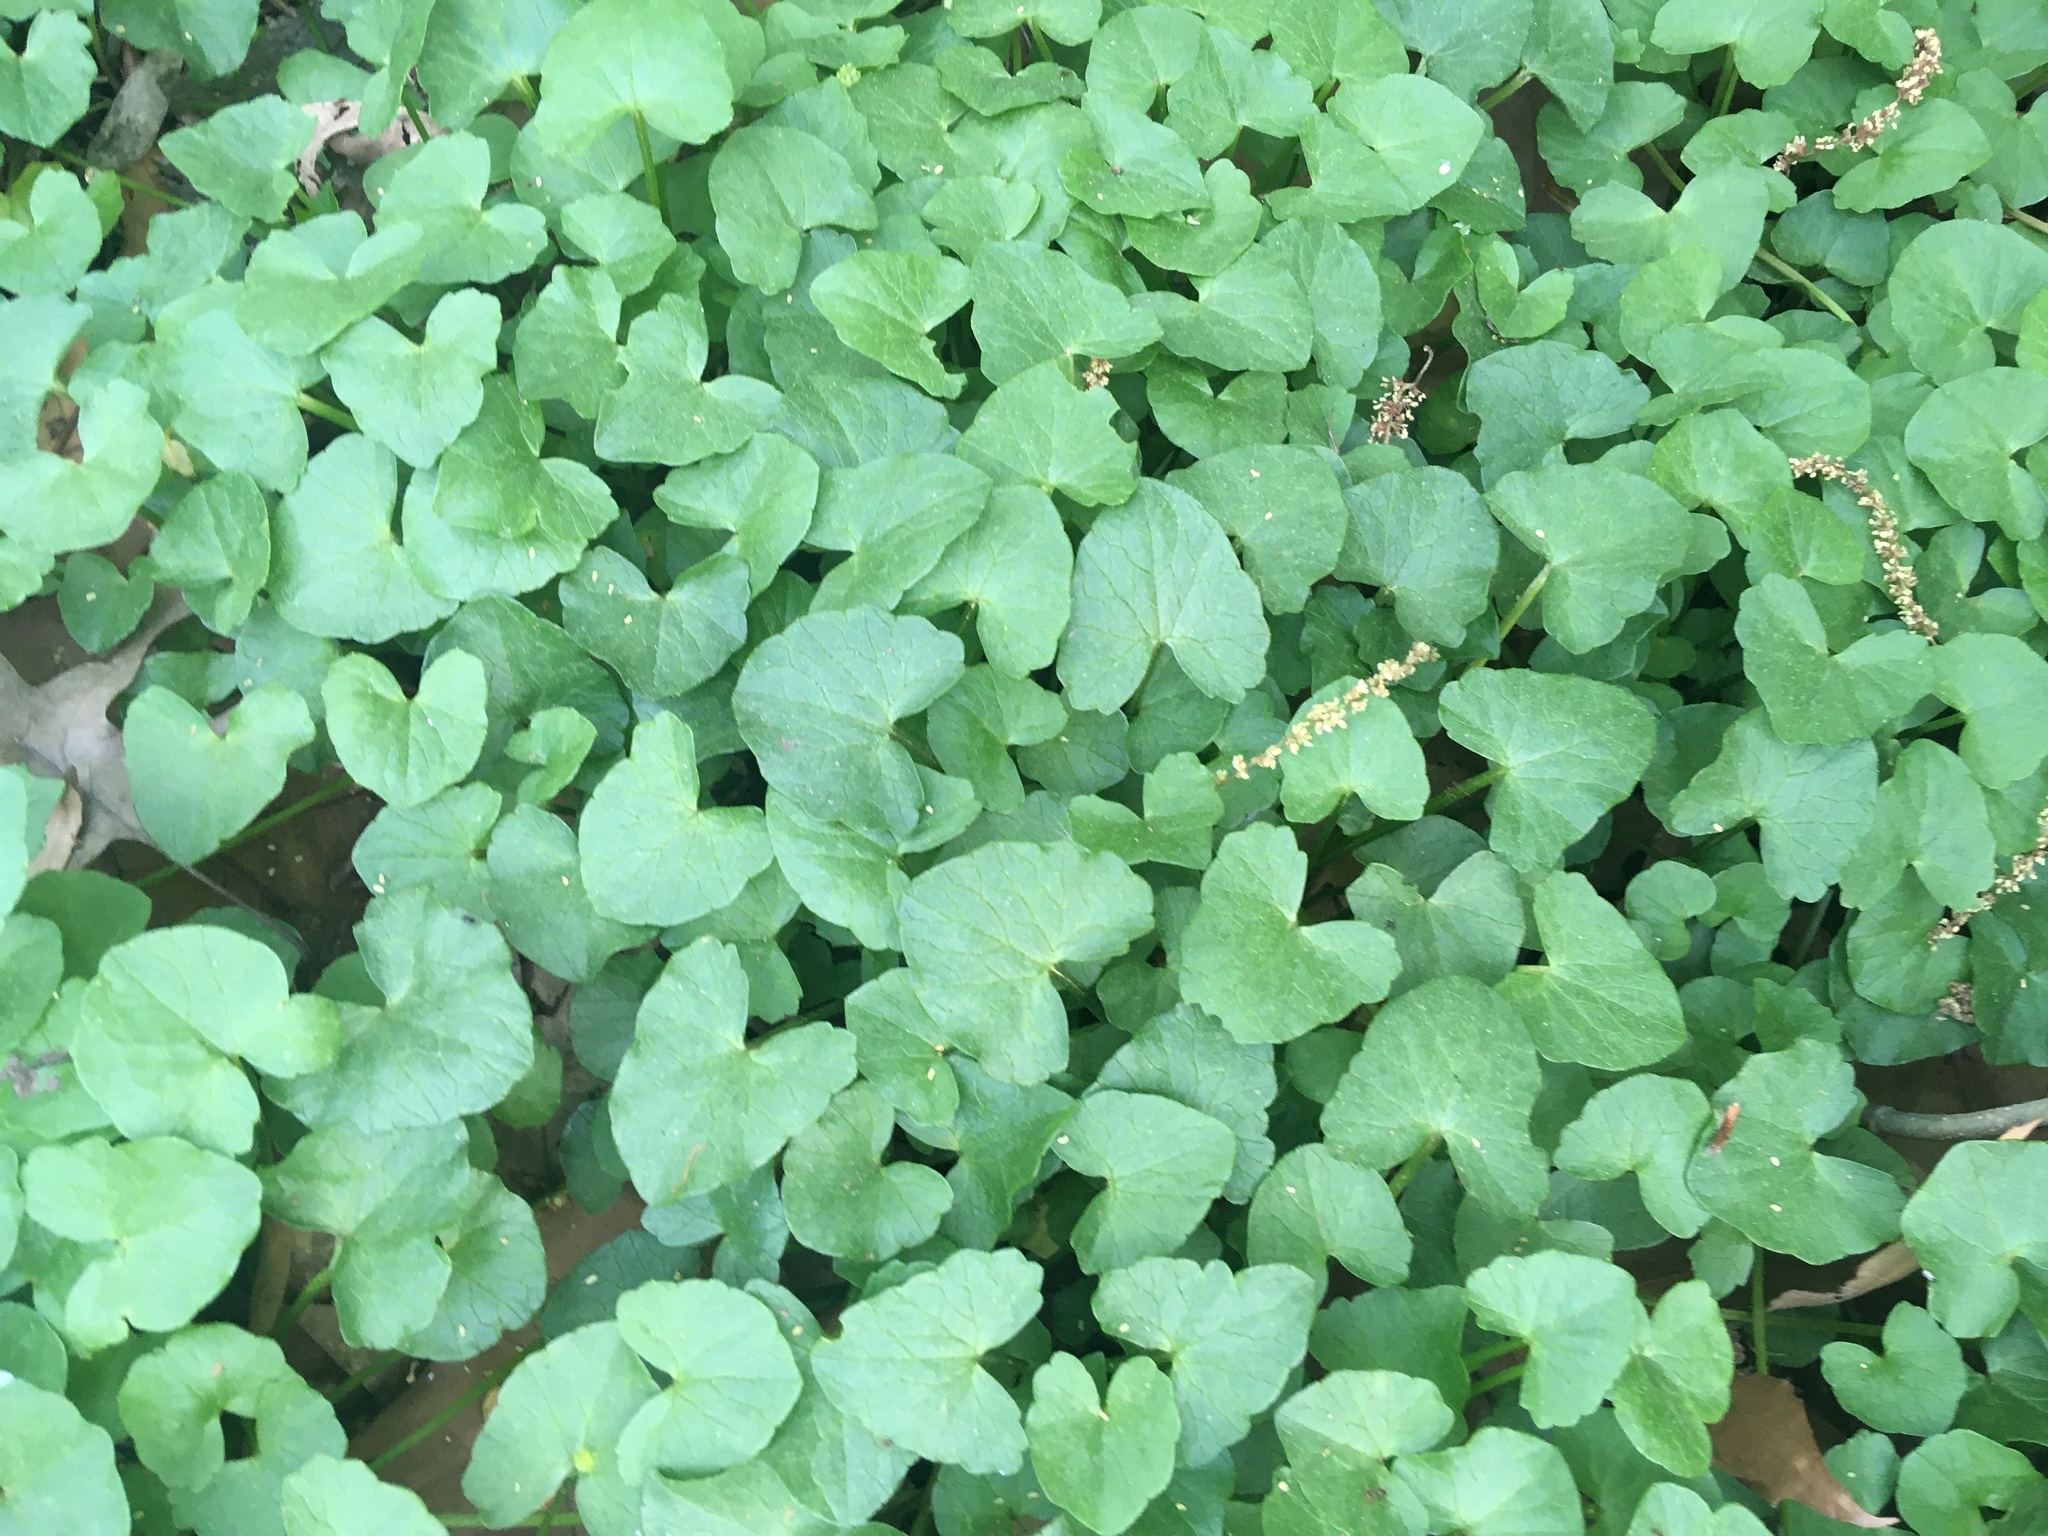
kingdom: Plantae
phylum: Tracheophyta
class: Magnoliopsida
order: Ranunculales
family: Ranunculaceae
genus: Ficaria
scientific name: Ficaria verna
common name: Lesser celandine
